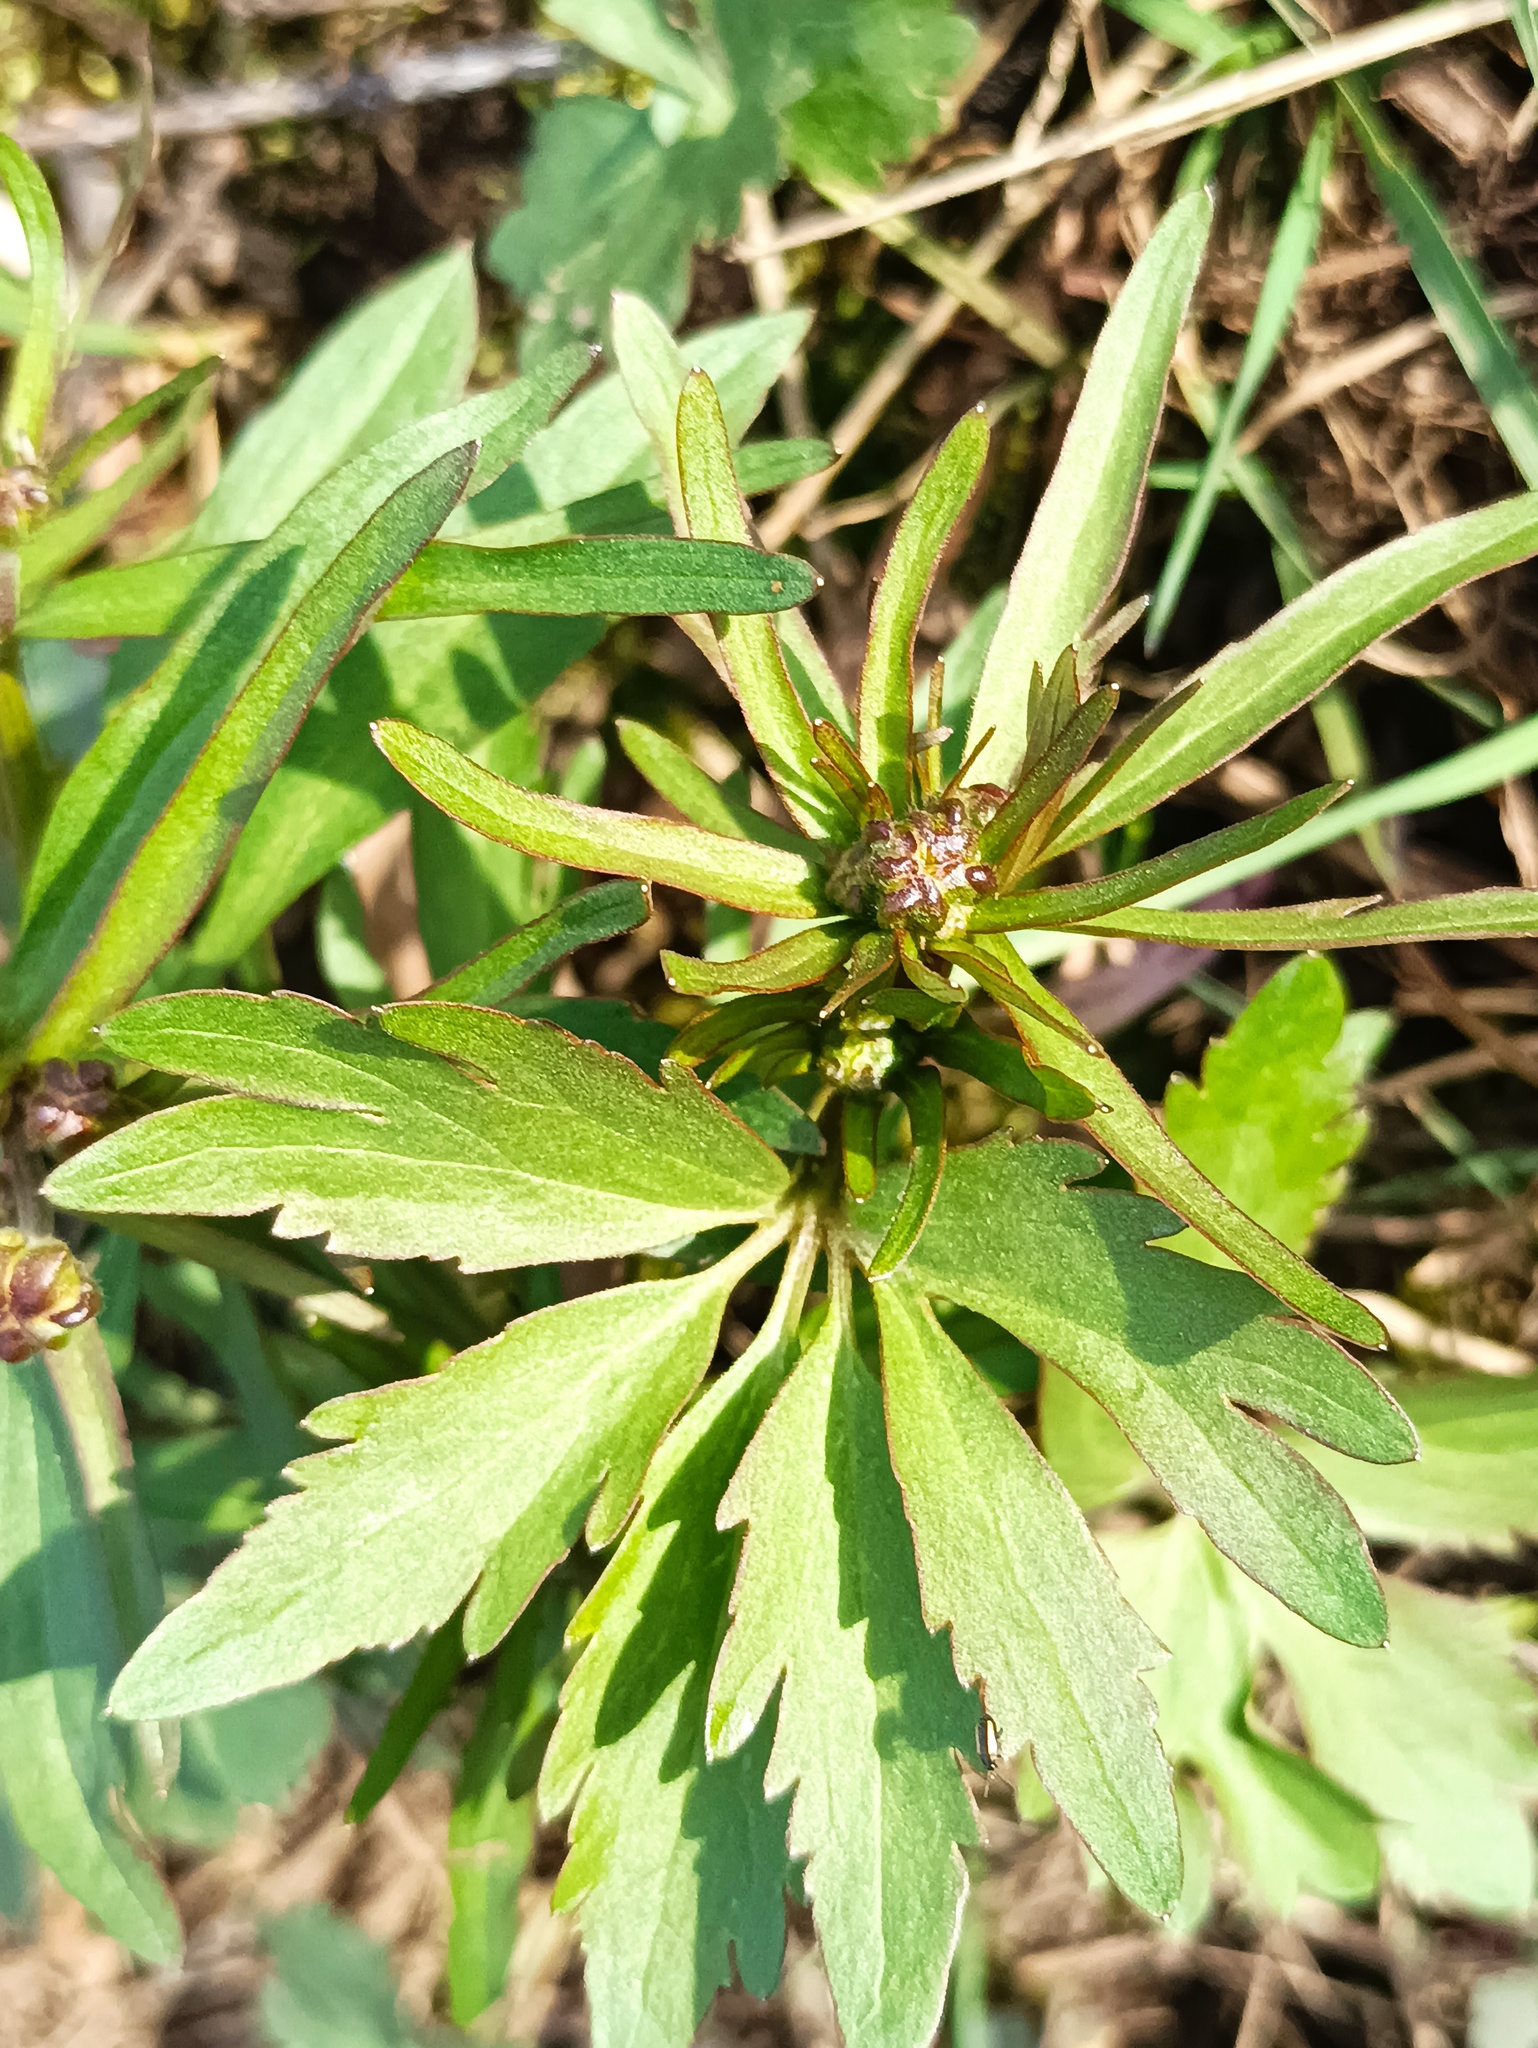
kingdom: Plantae
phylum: Tracheophyta
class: Magnoliopsida
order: Ranunculales
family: Ranunculaceae
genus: Ranunculus
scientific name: Ranunculus auricomus
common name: Goldilocks buttercup
